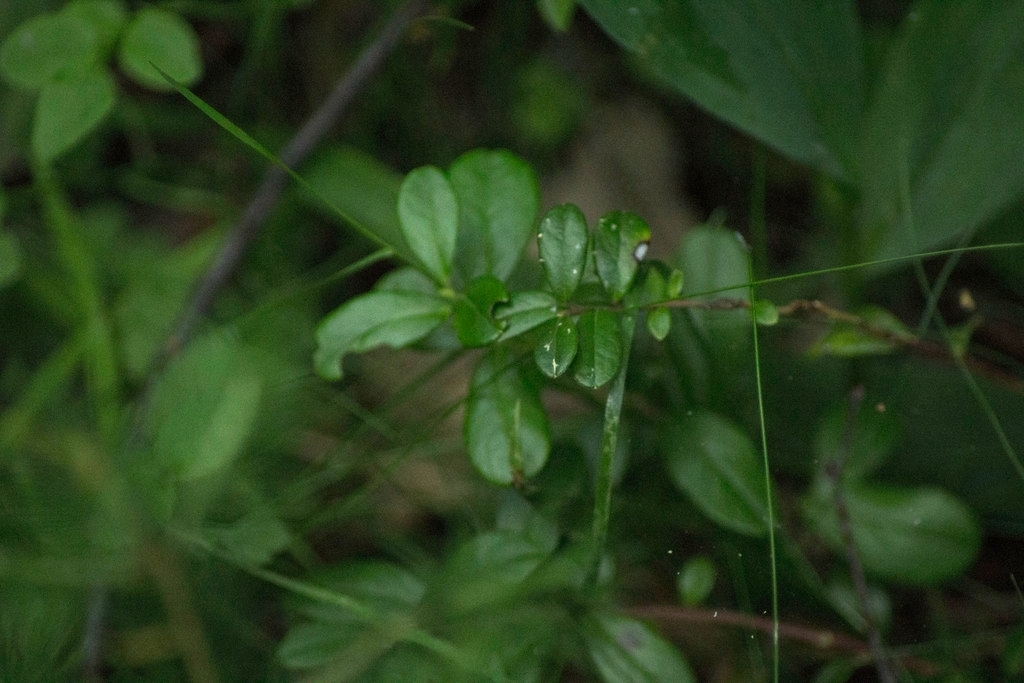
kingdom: Plantae
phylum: Tracheophyta
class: Magnoliopsida
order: Ericales
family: Ericaceae
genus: Vaccinium
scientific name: Vaccinium vitis-idaea
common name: Cowberry
